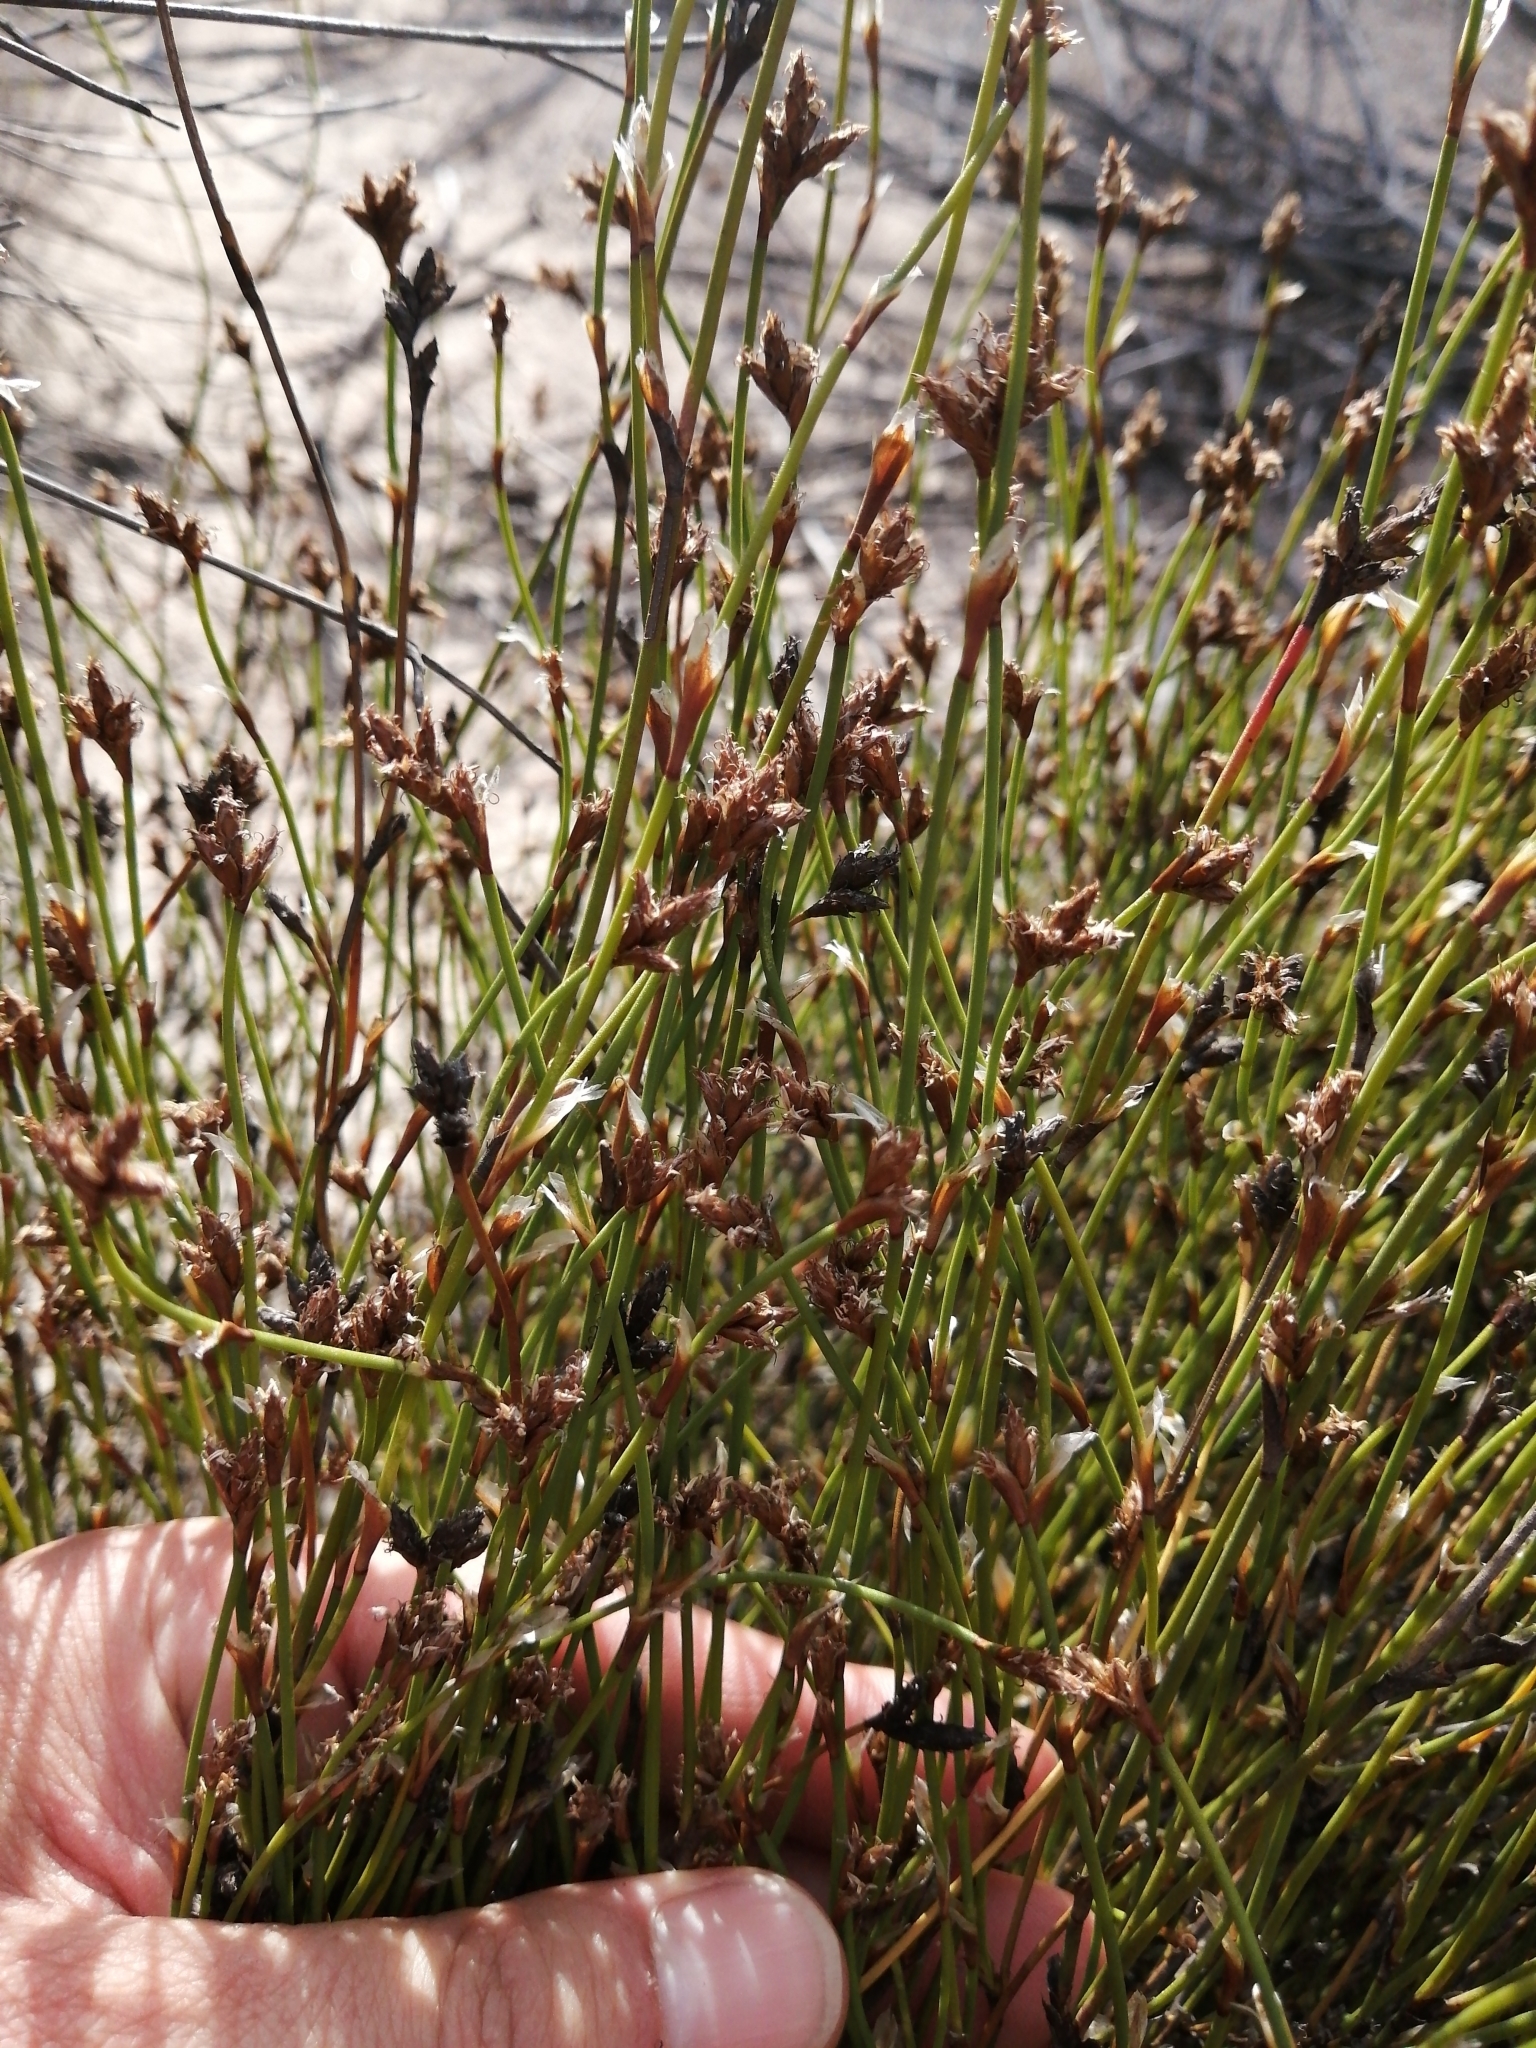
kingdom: Plantae
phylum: Tracheophyta
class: Liliopsida
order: Poales
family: Restionaceae
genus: Restio
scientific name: Restio capensis
